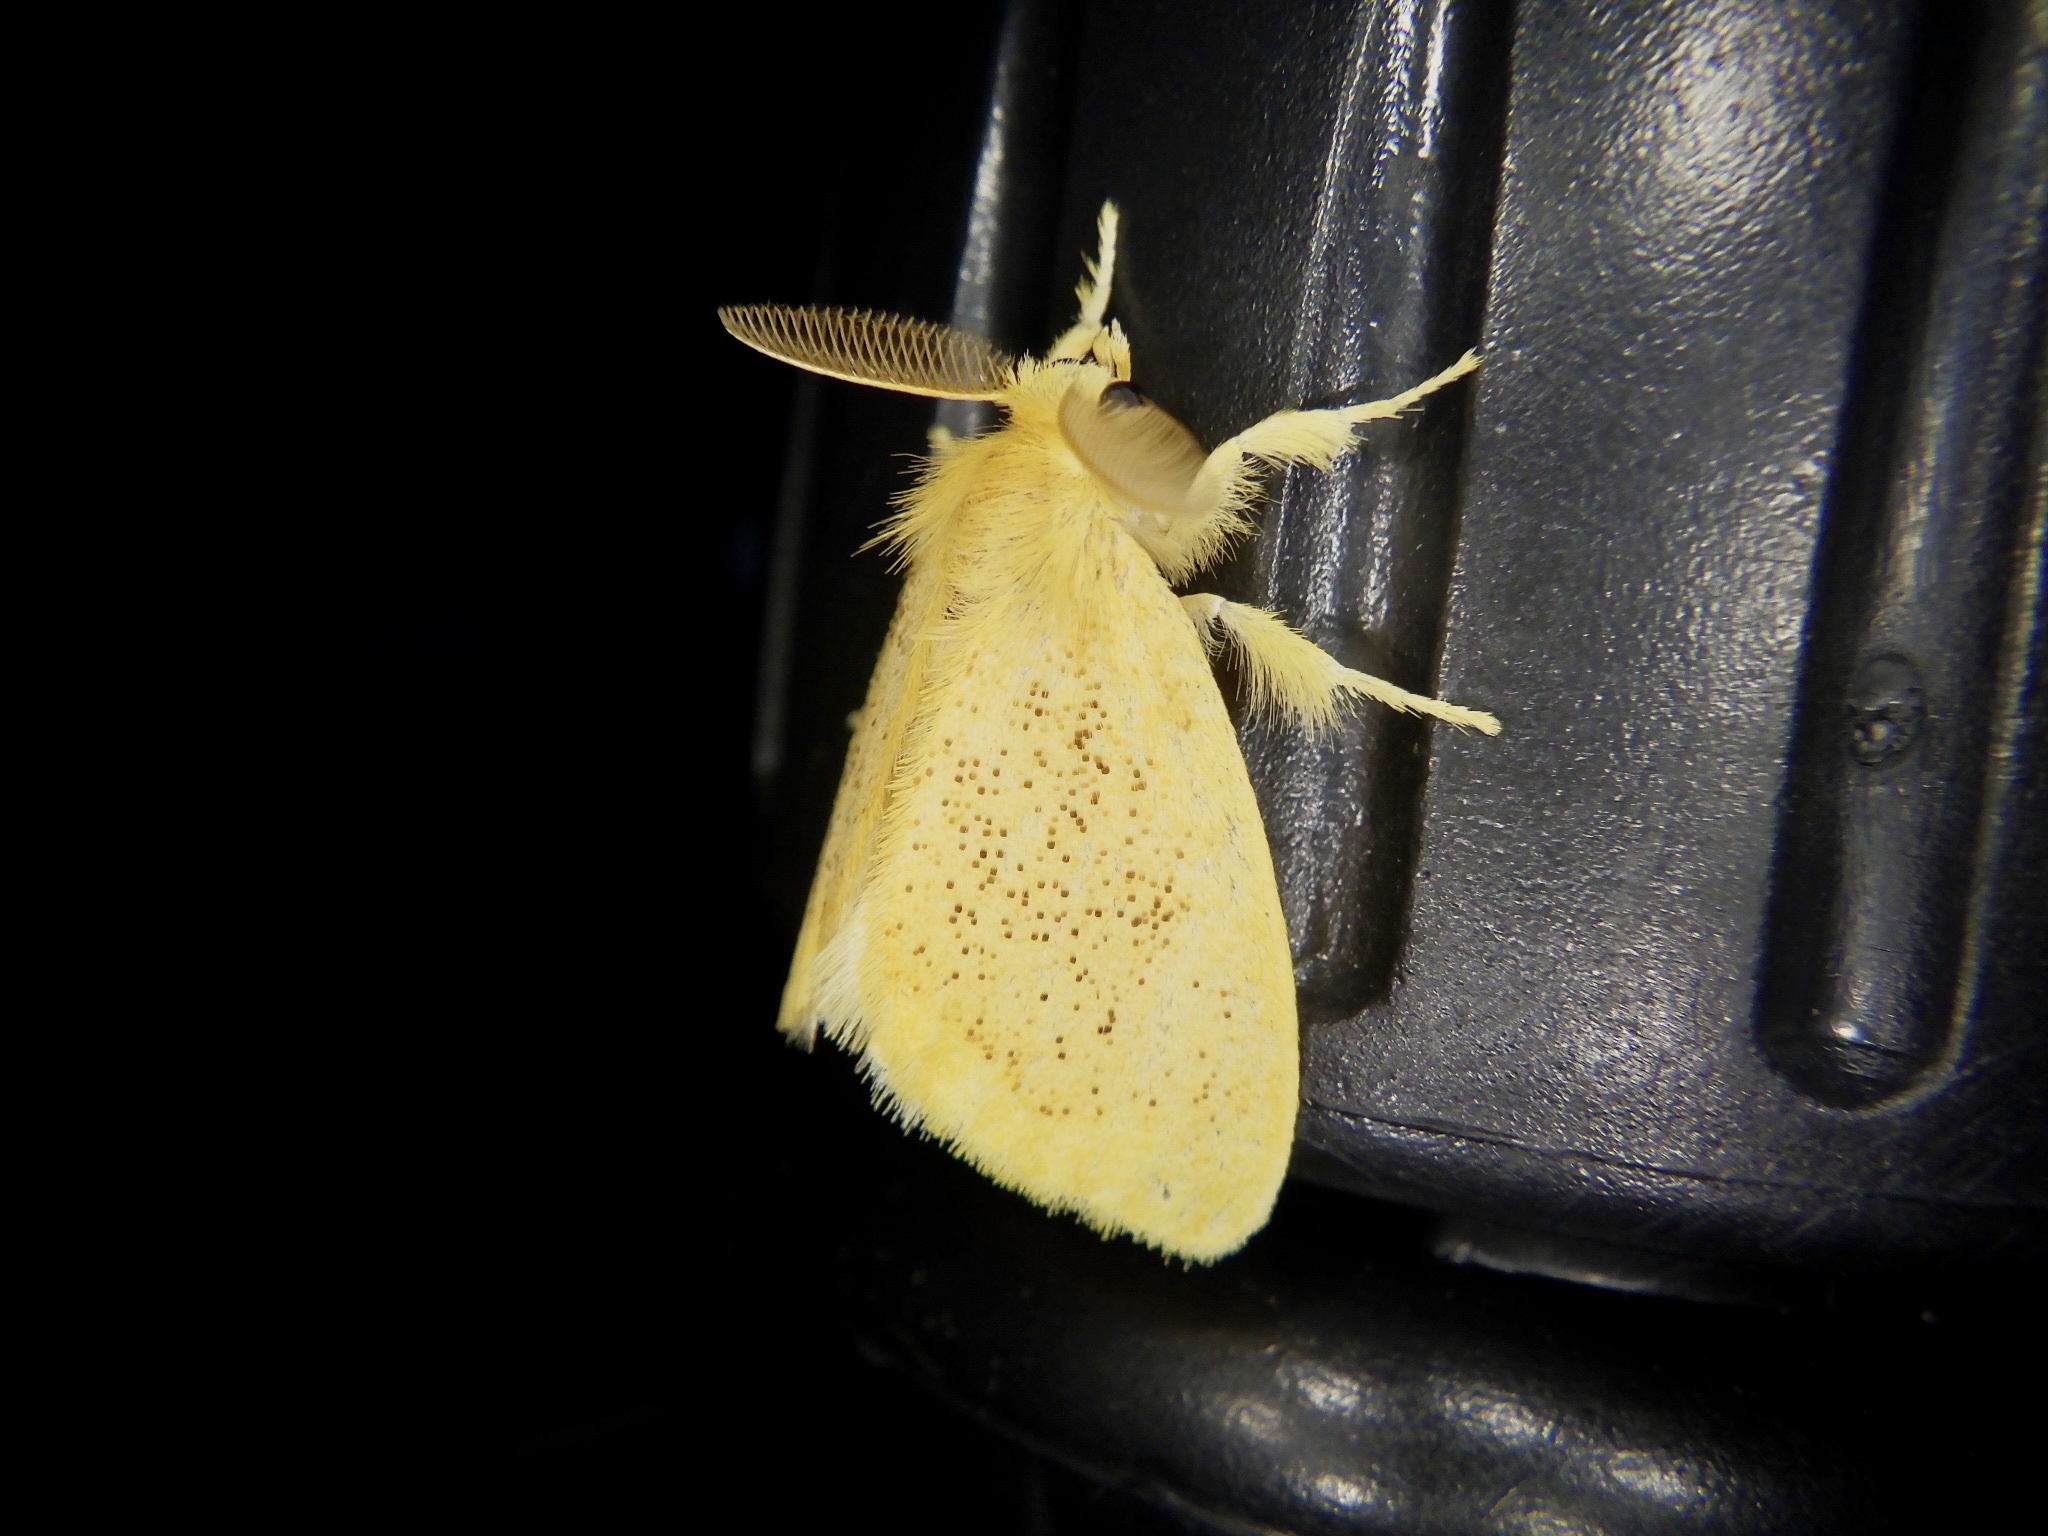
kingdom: Animalia
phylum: Arthropoda
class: Insecta
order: Lepidoptera
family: Erebidae
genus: Somena
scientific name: Somena
